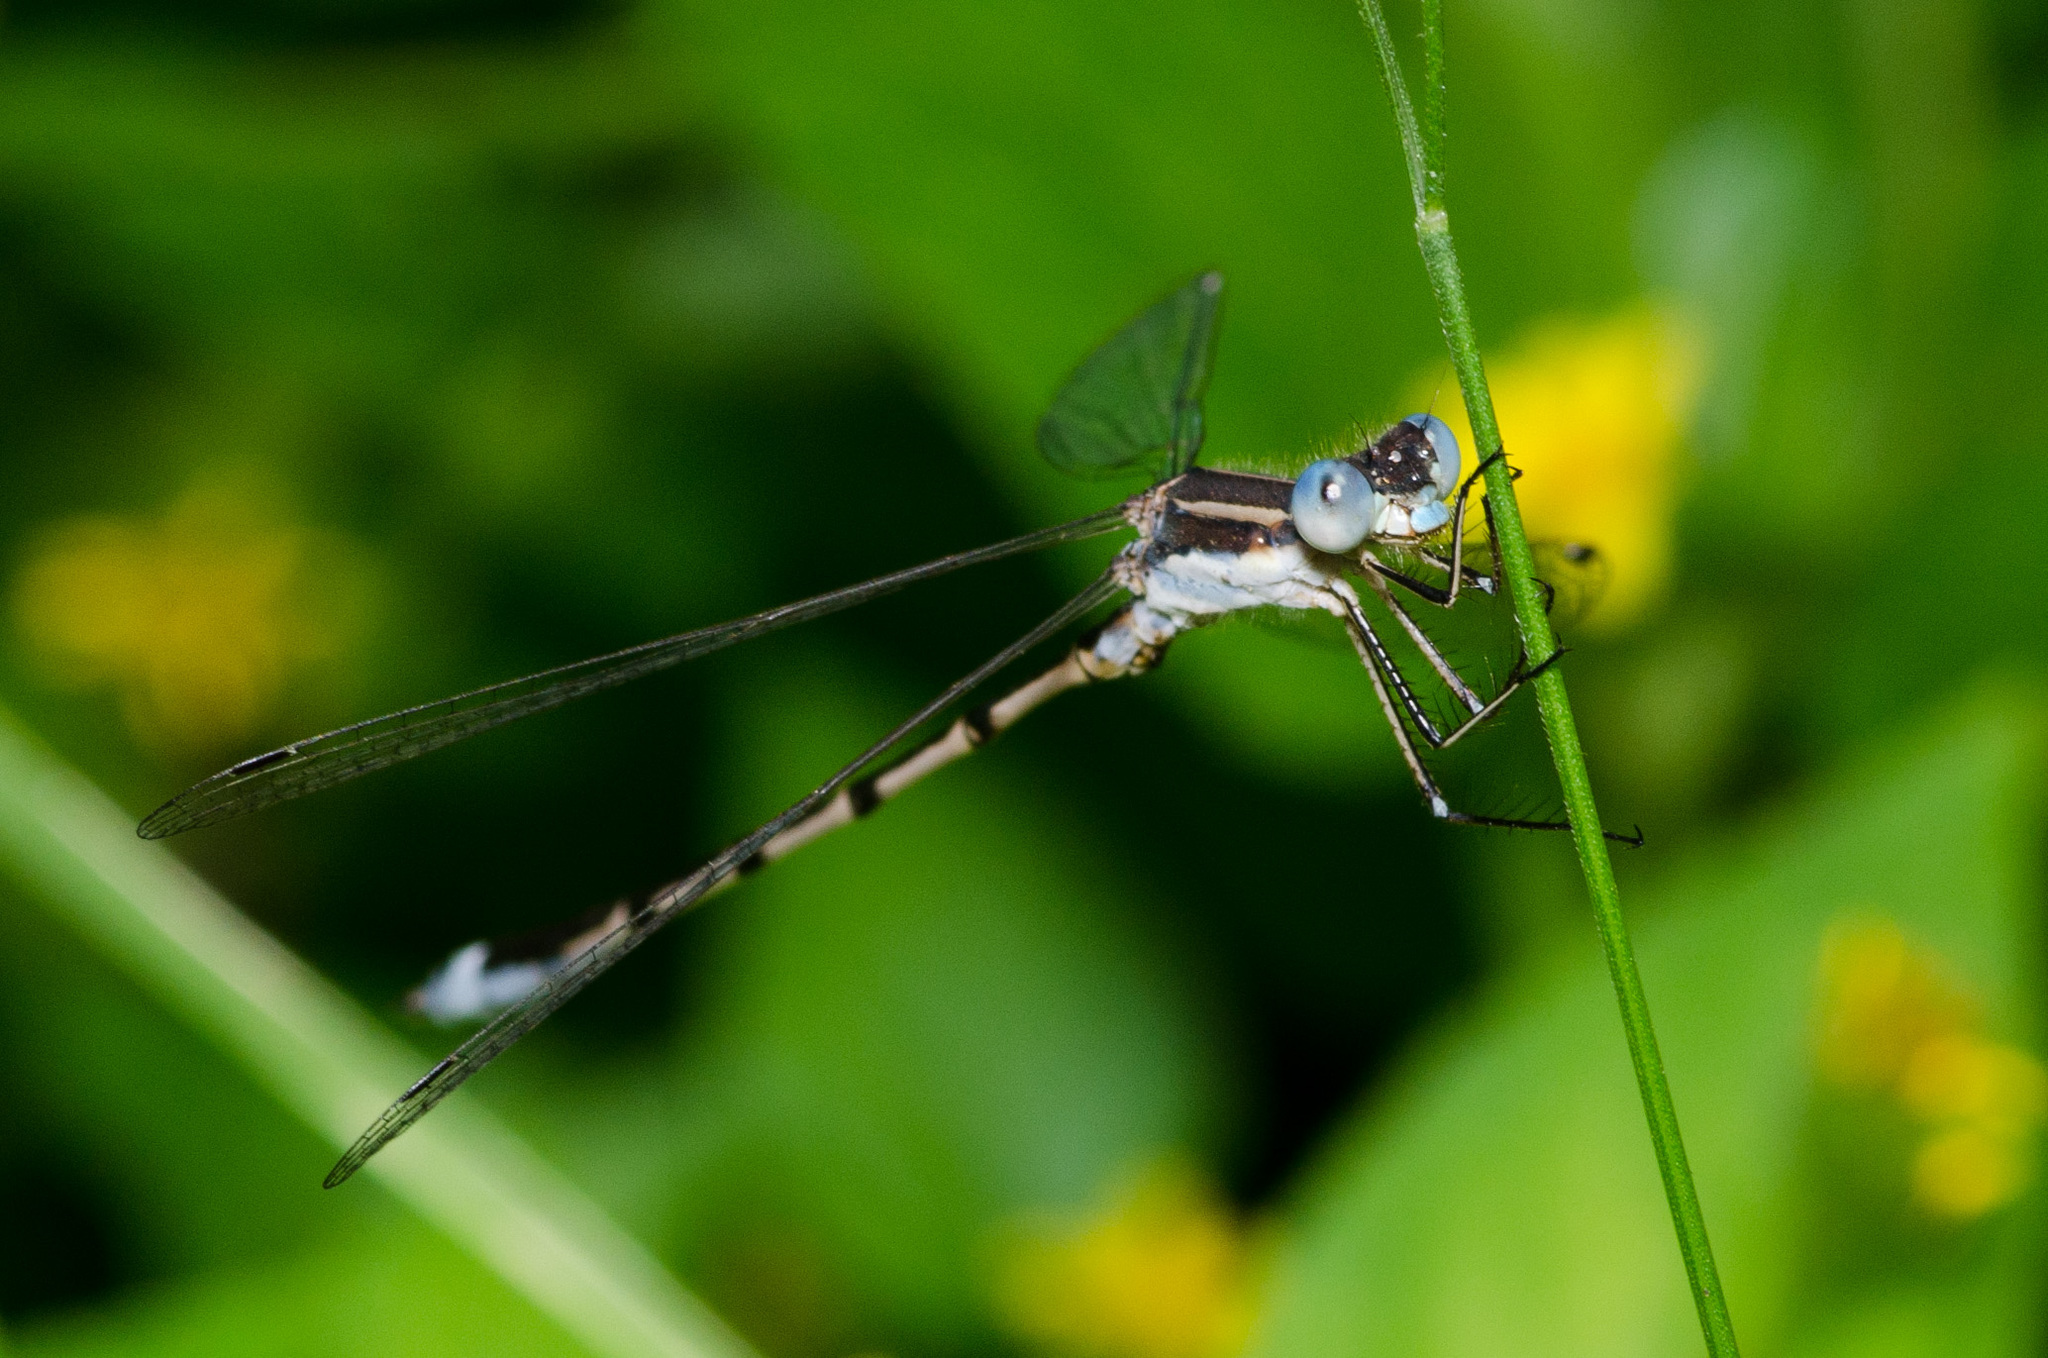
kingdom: Animalia
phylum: Arthropoda
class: Insecta
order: Odonata
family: Lestidae
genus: Lestes
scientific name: Lestes australis
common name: Southern spreadwing
